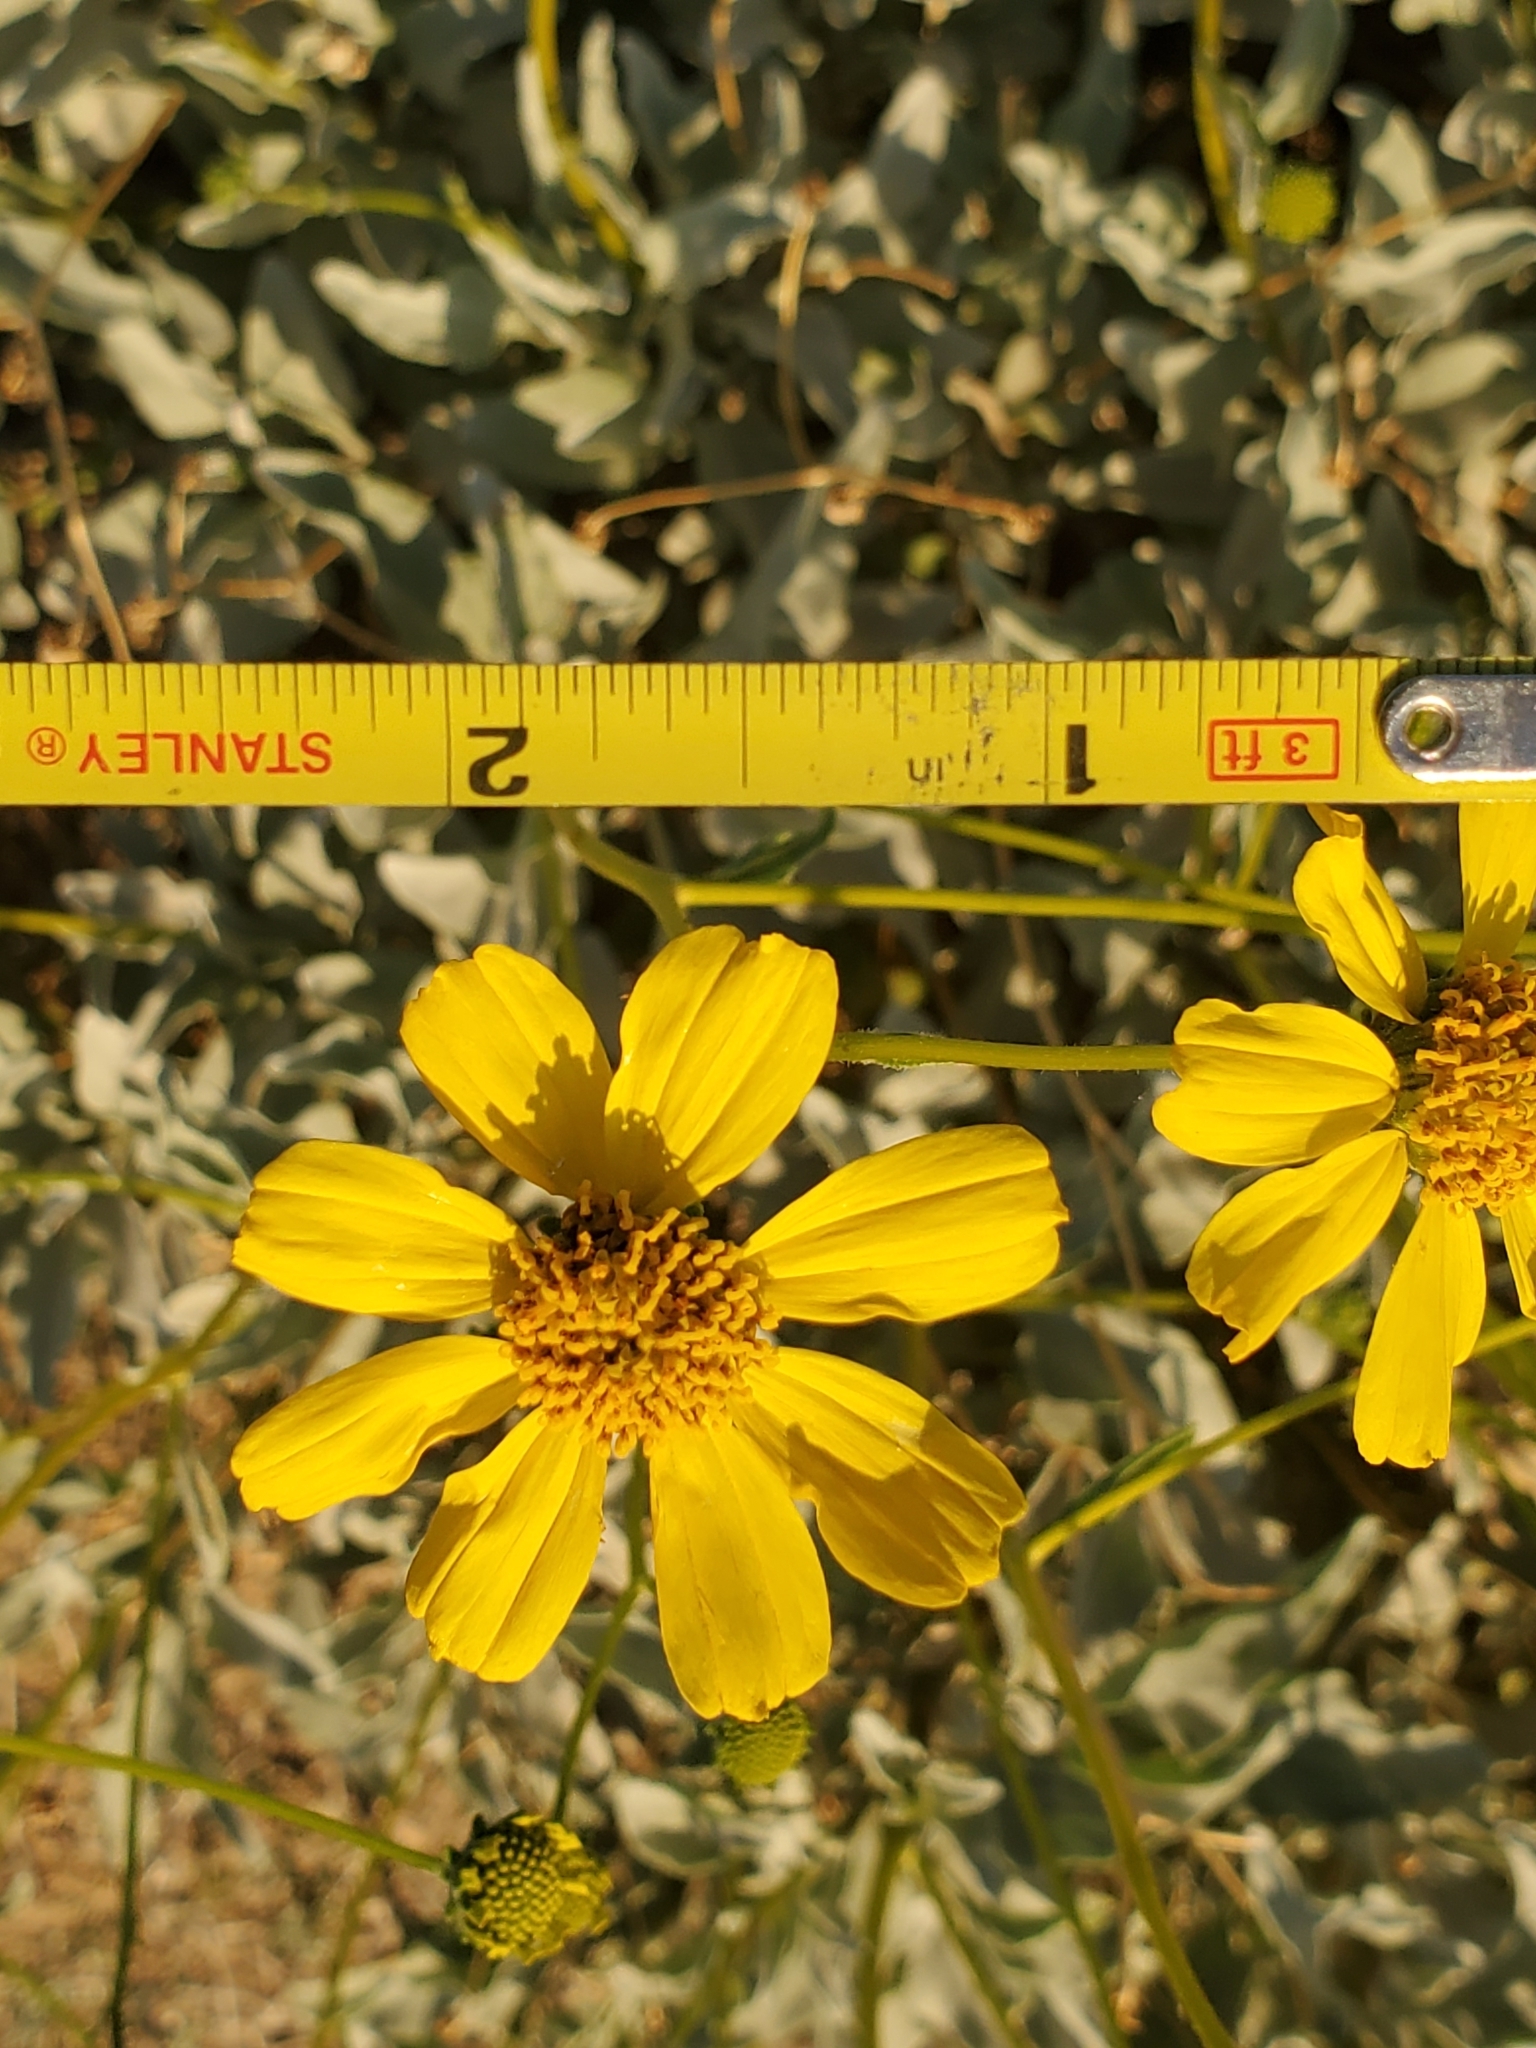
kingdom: Plantae
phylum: Tracheophyta
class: Magnoliopsida
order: Asterales
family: Asteraceae
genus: Encelia
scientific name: Encelia farinosa
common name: Brittlebush
